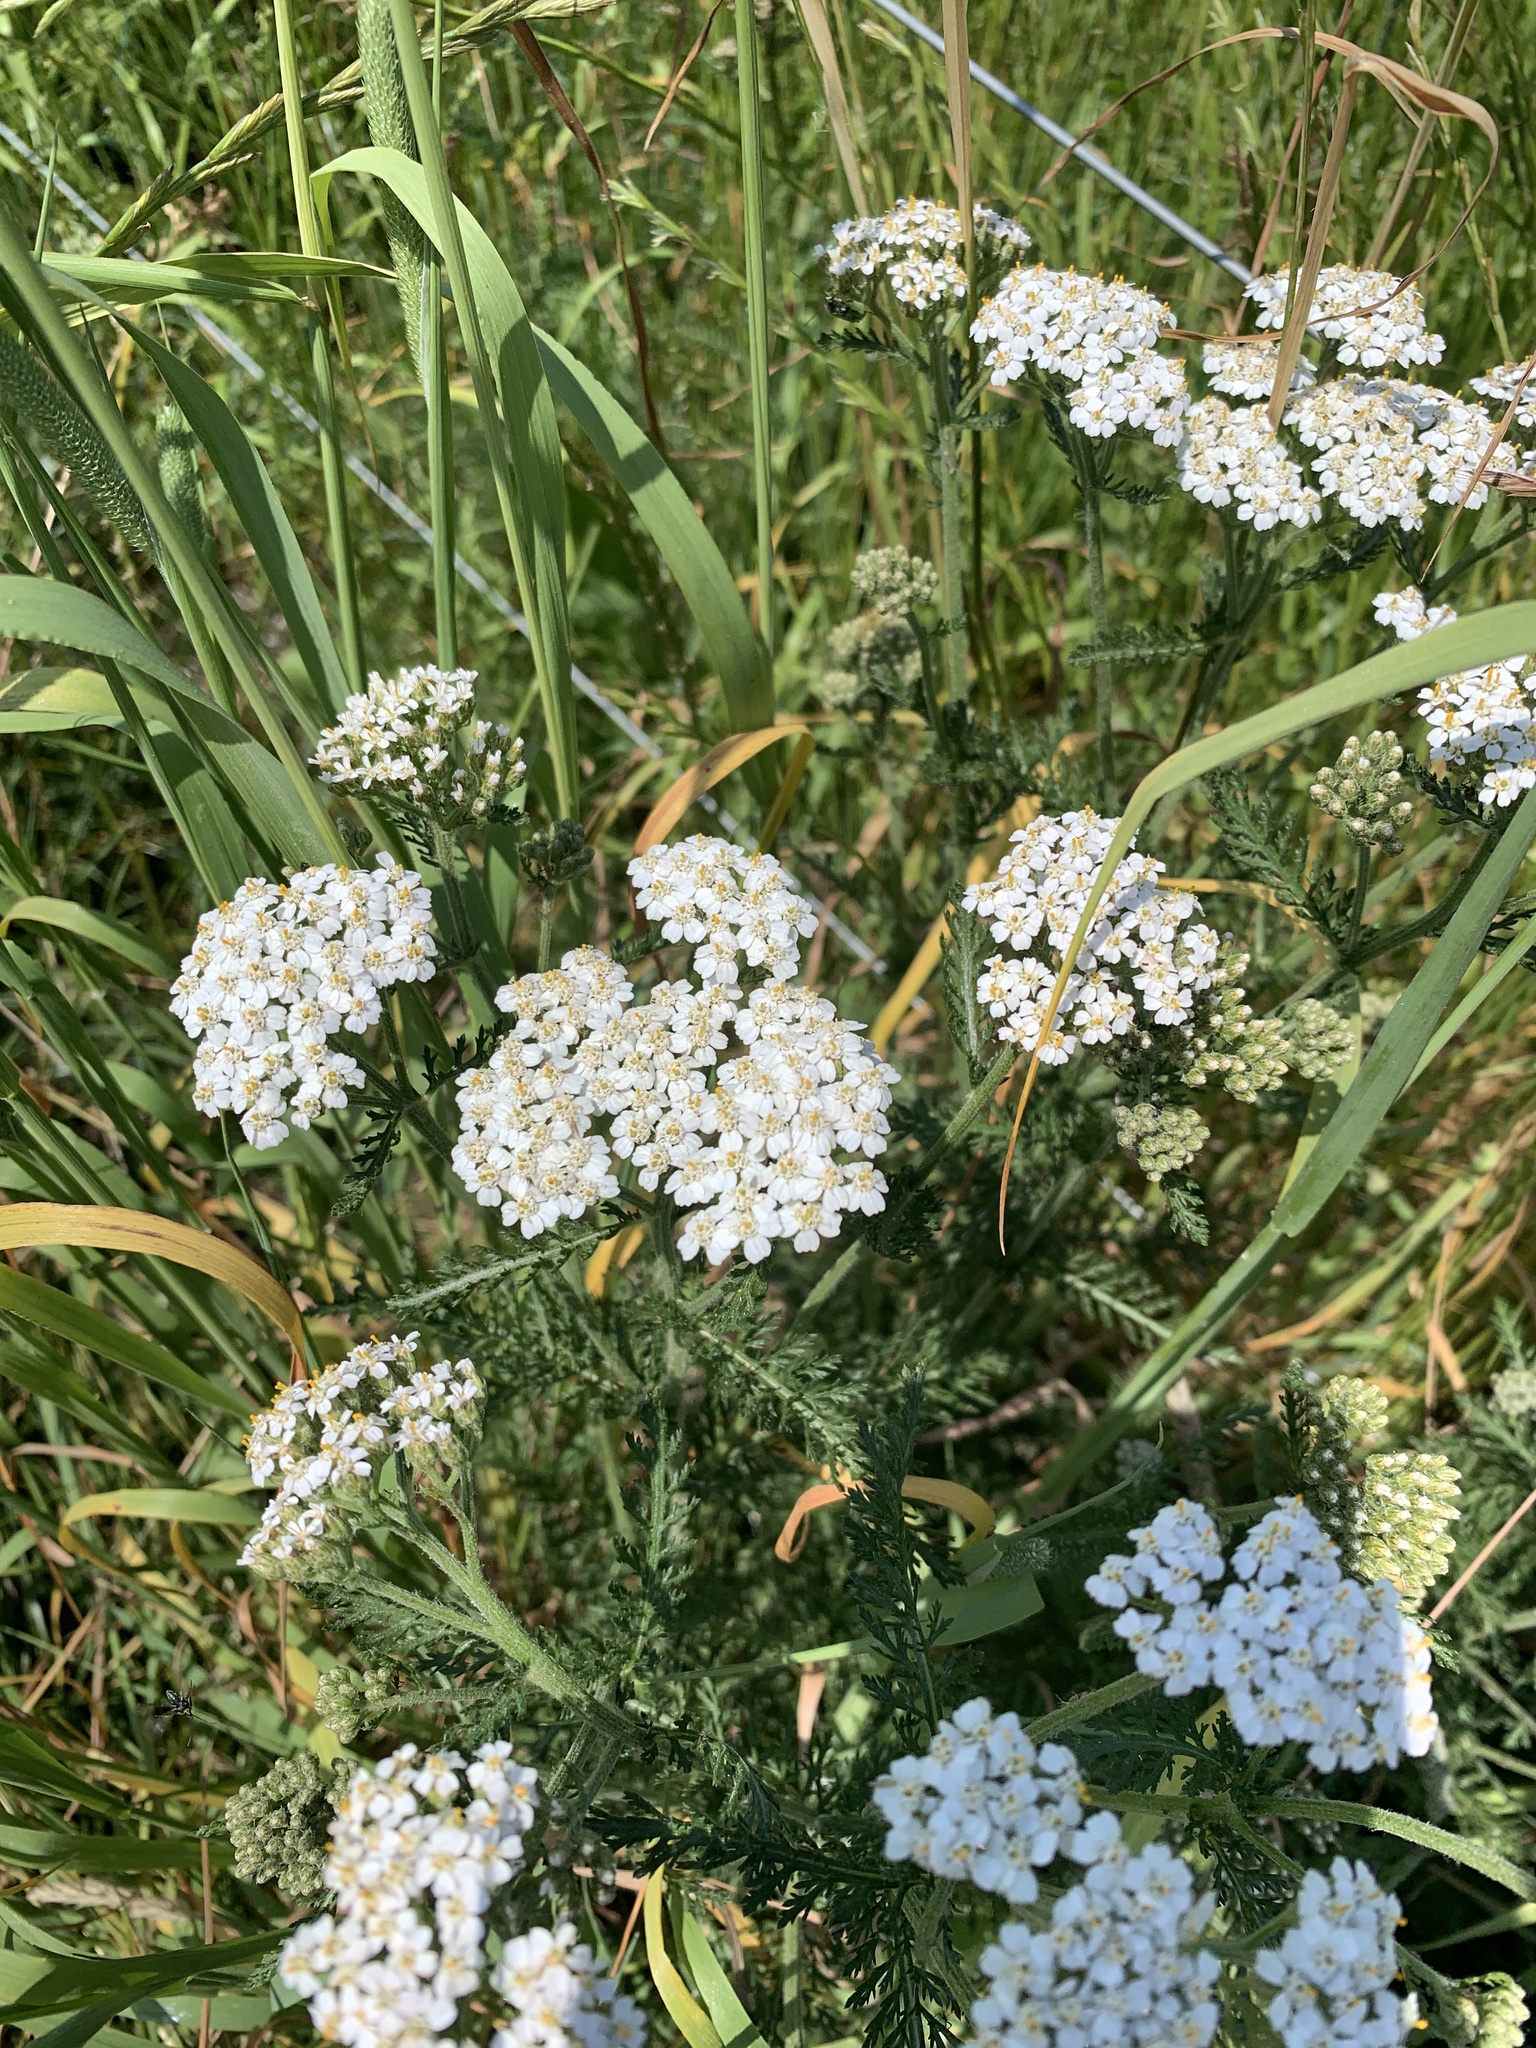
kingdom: Plantae
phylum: Tracheophyta
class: Magnoliopsida
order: Asterales
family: Asteraceae
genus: Achillea
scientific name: Achillea millefolium
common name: Yarrow
